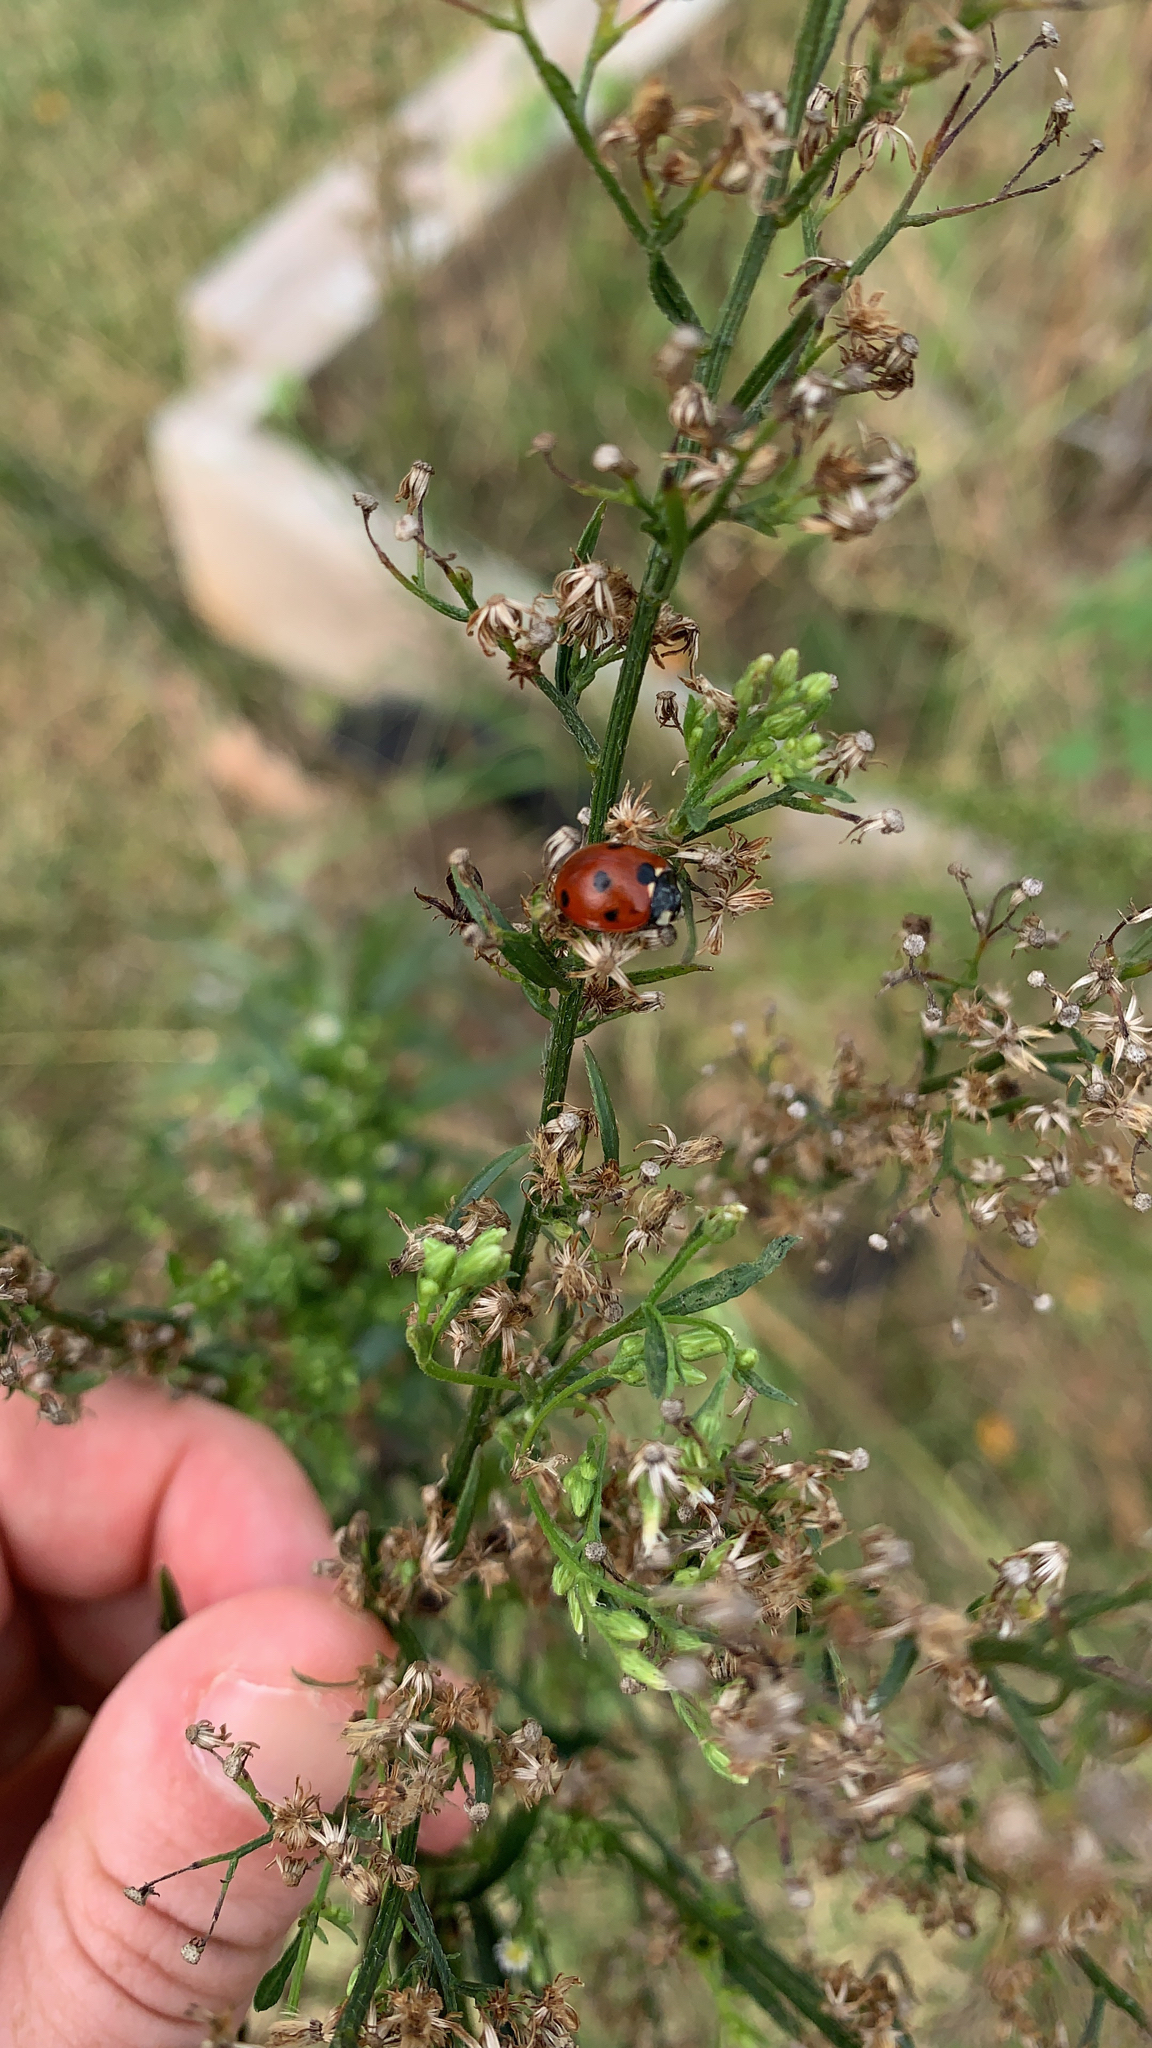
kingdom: Animalia
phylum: Arthropoda
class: Insecta
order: Coleoptera
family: Coccinellidae
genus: Coccinella
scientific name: Coccinella septempunctata
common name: Sevenspotted lady beetle
